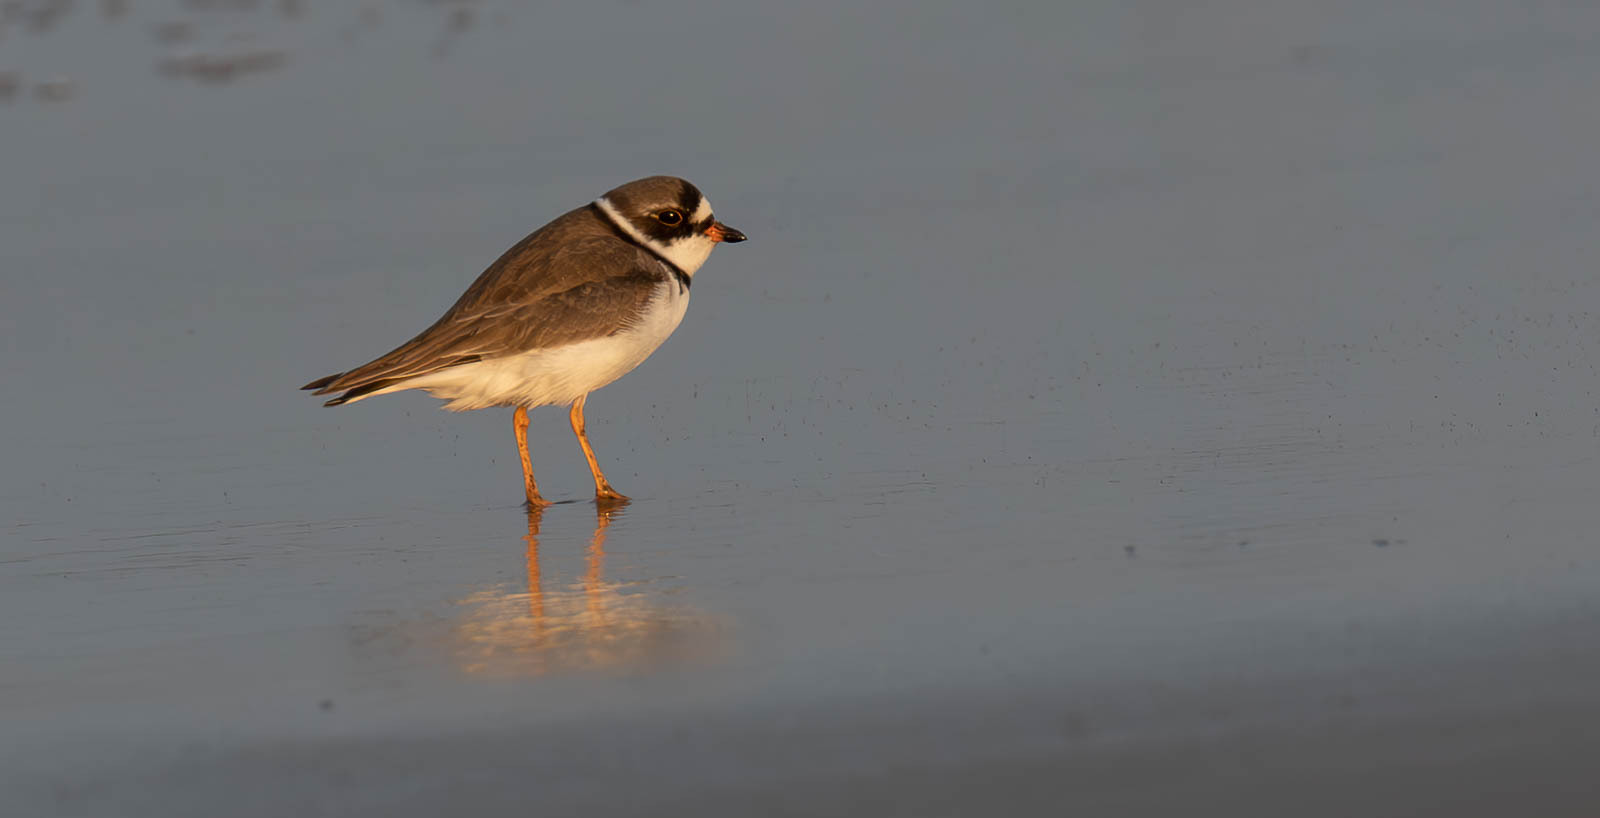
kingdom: Animalia
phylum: Chordata
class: Aves
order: Charadriiformes
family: Charadriidae
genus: Charadrius
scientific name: Charadrius semipalmatus
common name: Semipalmated plover
